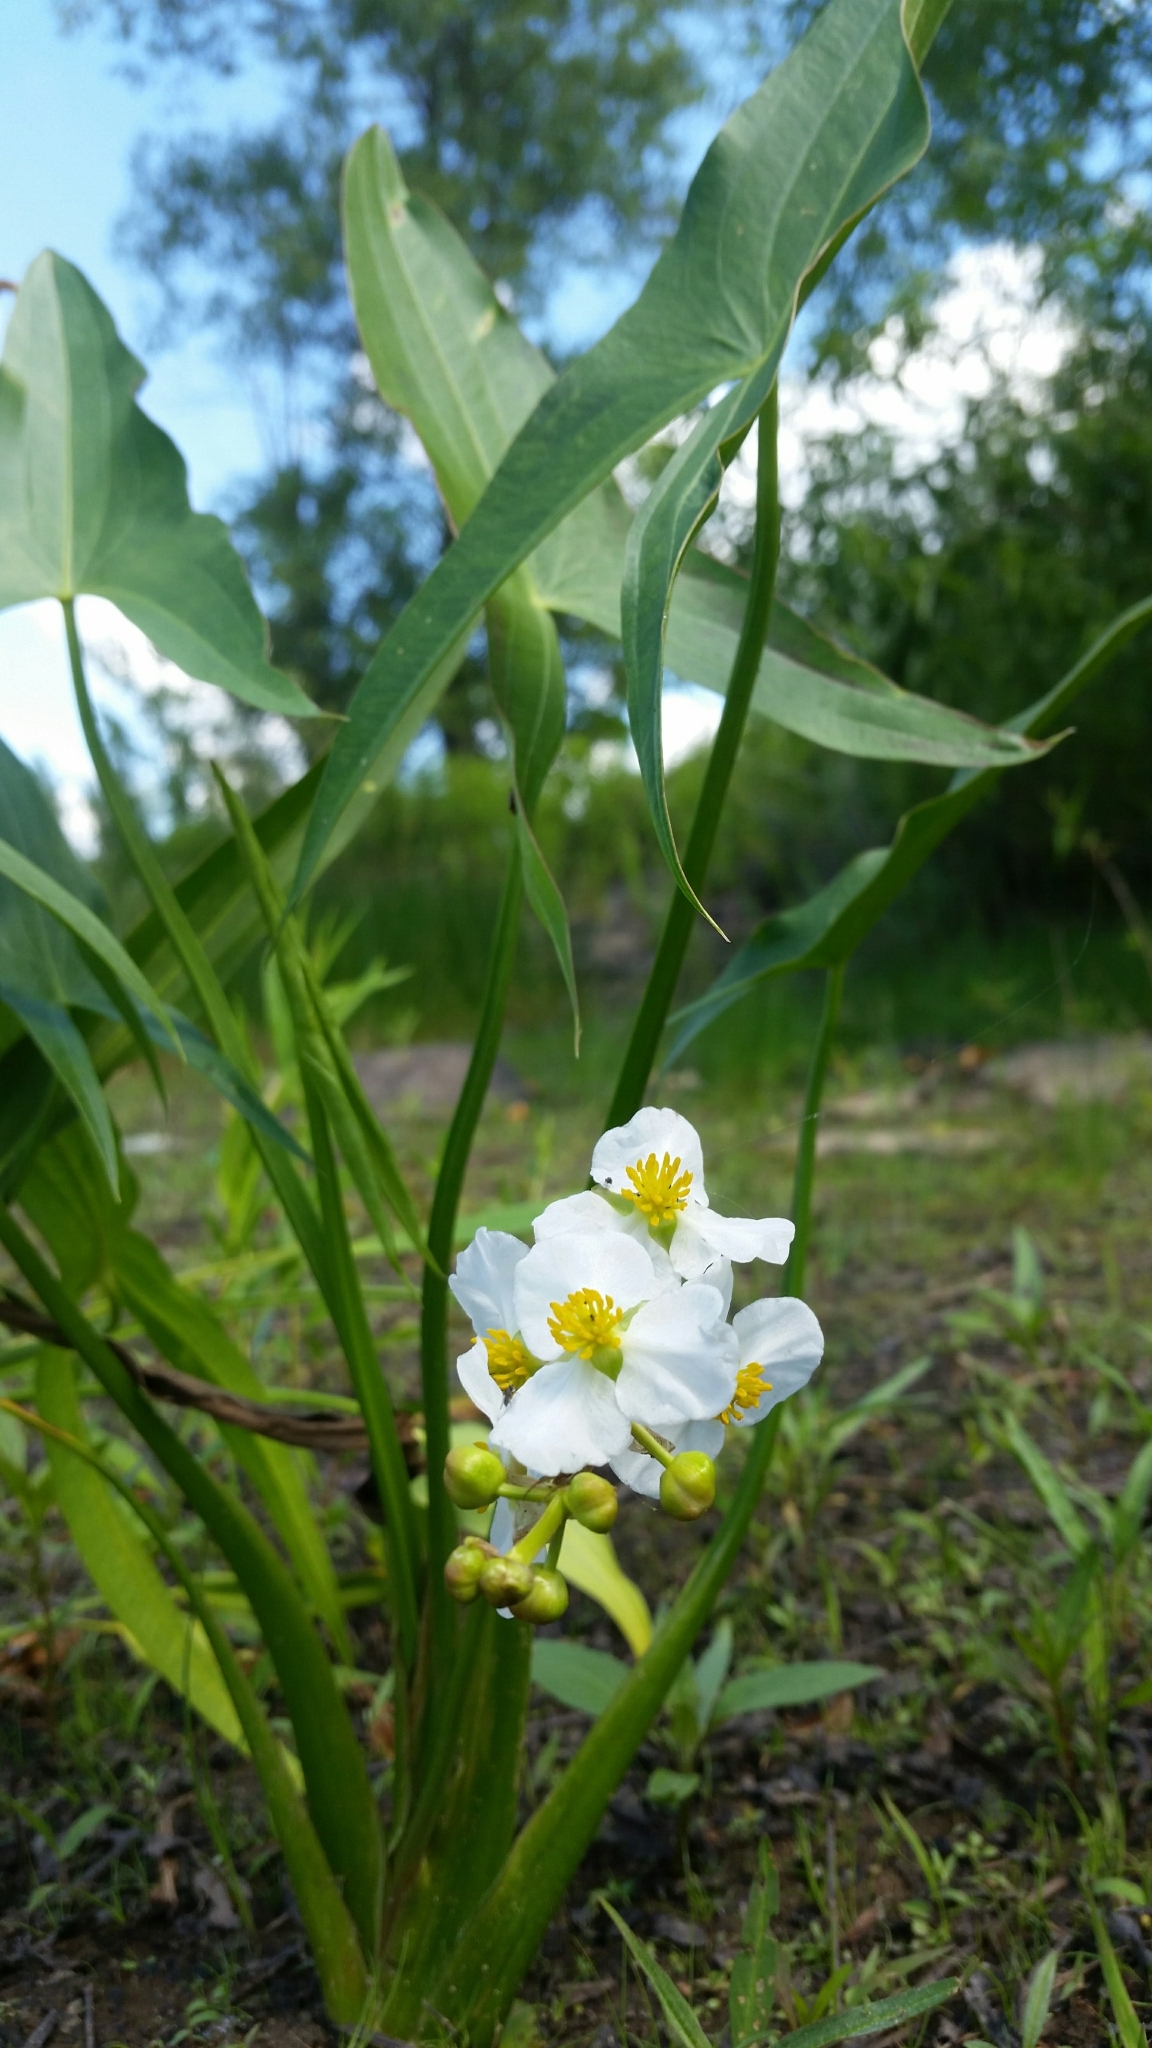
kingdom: Plantae
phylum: Tracheophyta
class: Liliopsida
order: Alismatales
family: Alismataceae
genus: Sagittaria
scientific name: Sagittaria latifolia
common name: Duck-potato
